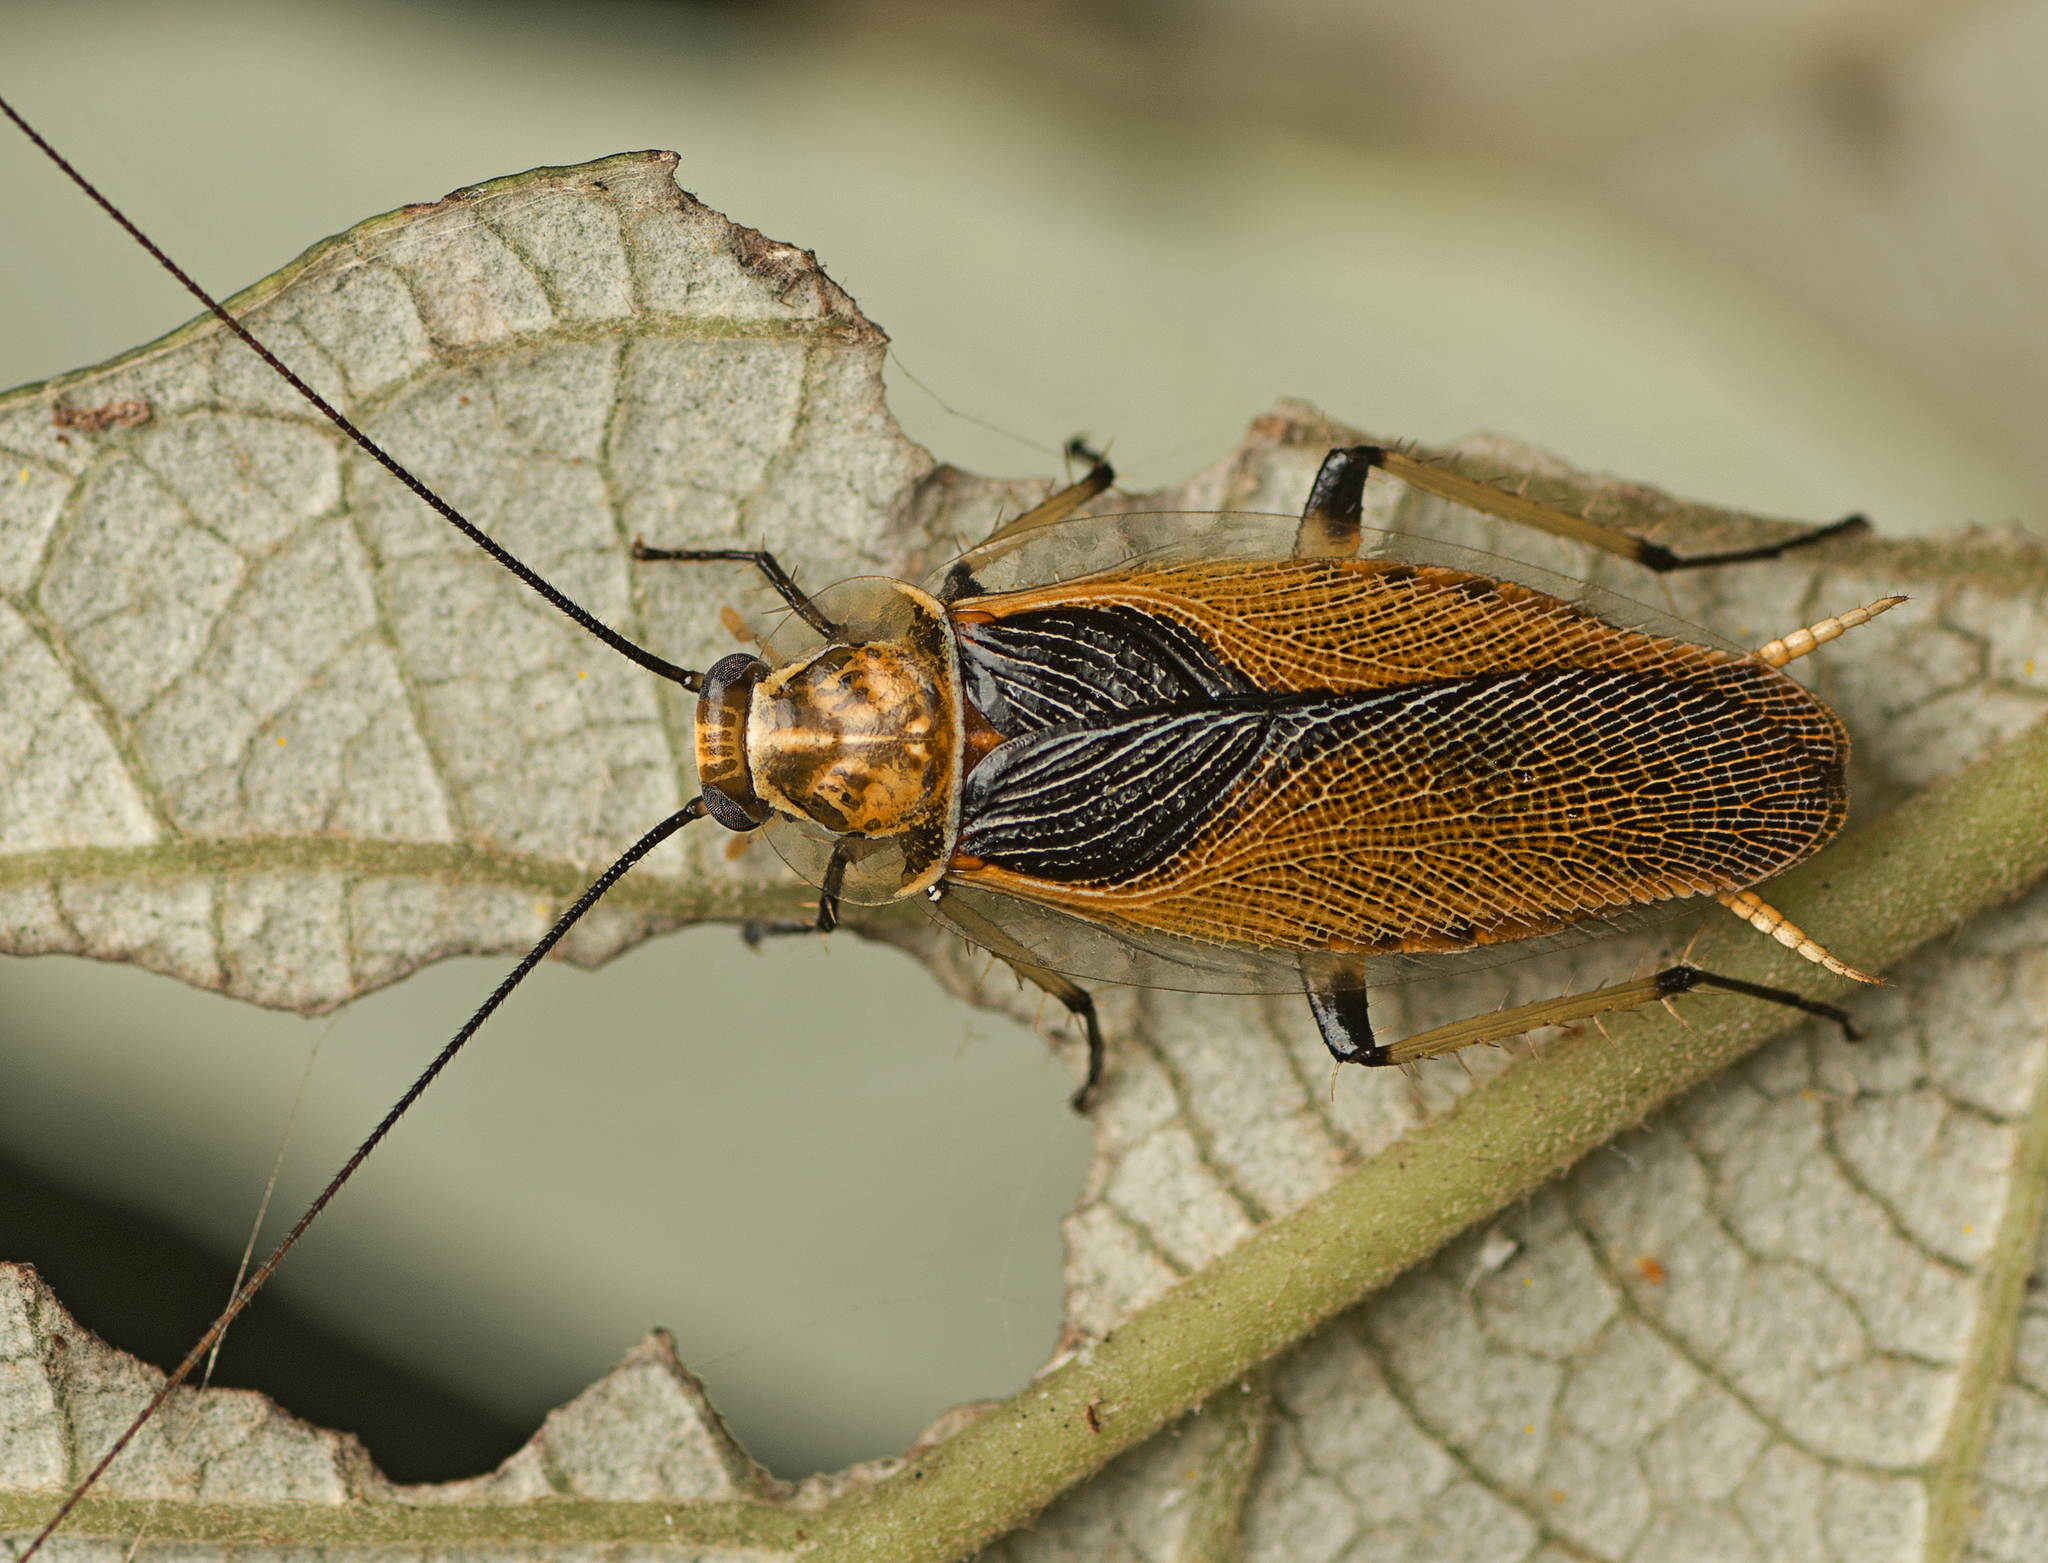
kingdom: Animalia
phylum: Arthropoda
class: Insecta
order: Blattodea
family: Ectobiidae
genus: Ellipsidion
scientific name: Ellipsidion bicolor
